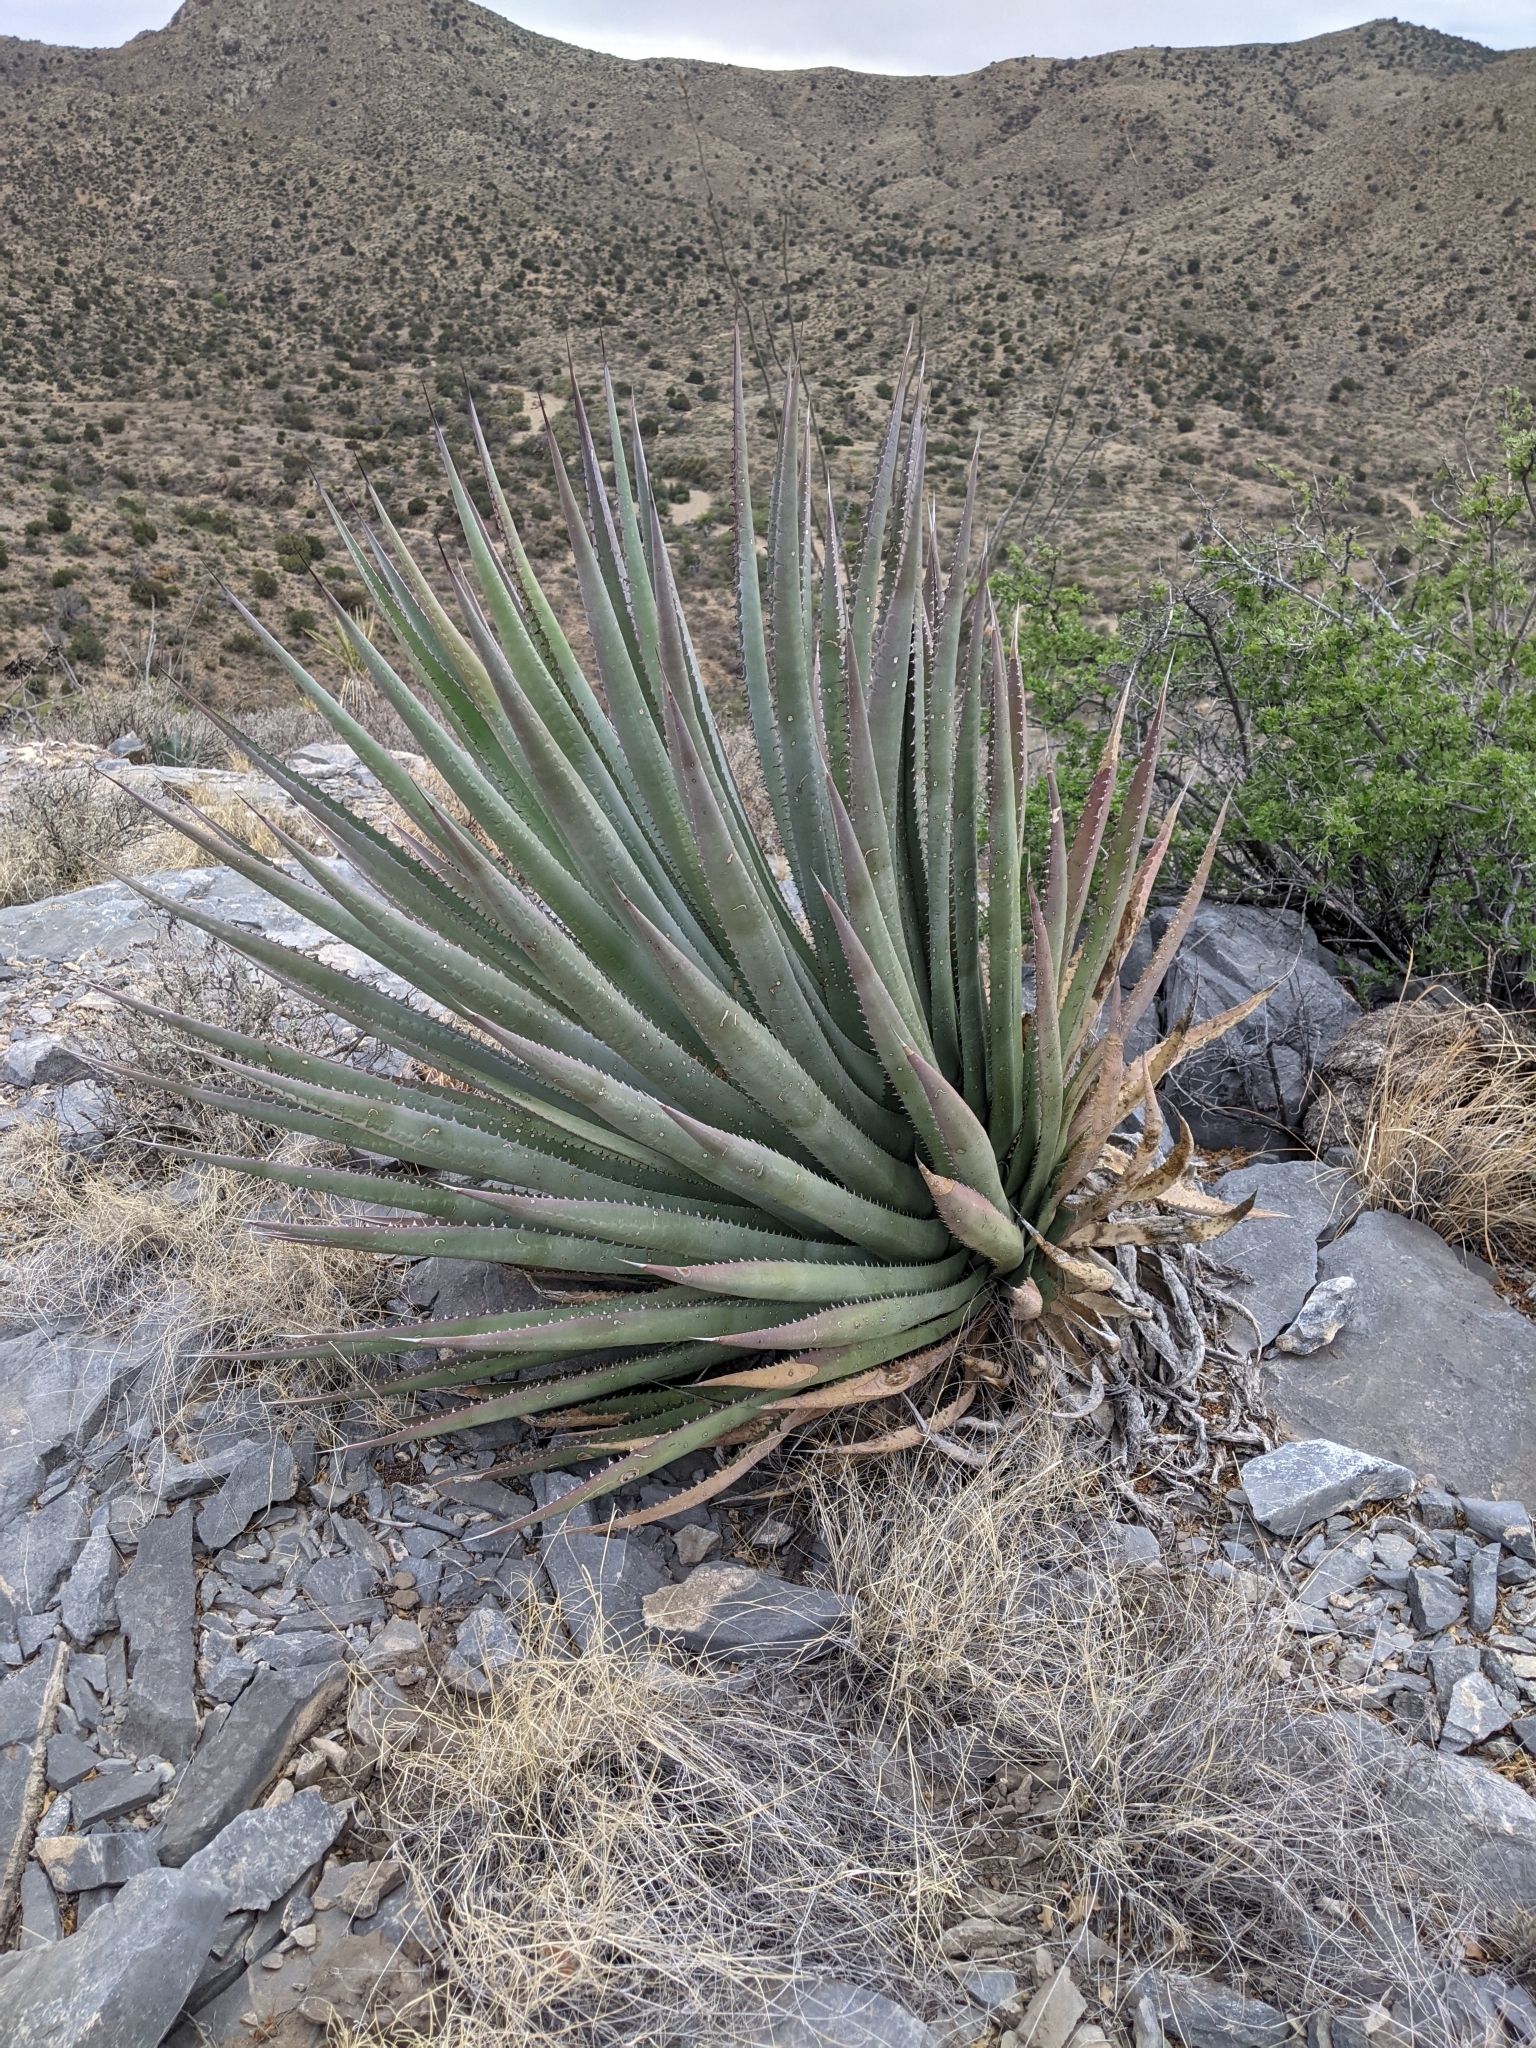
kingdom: Plantae
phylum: Tracheophyta
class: Liliopsida
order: Asparagales
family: Asparagaceae
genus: Agave
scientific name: Agave palmeri
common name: Palmer agave
